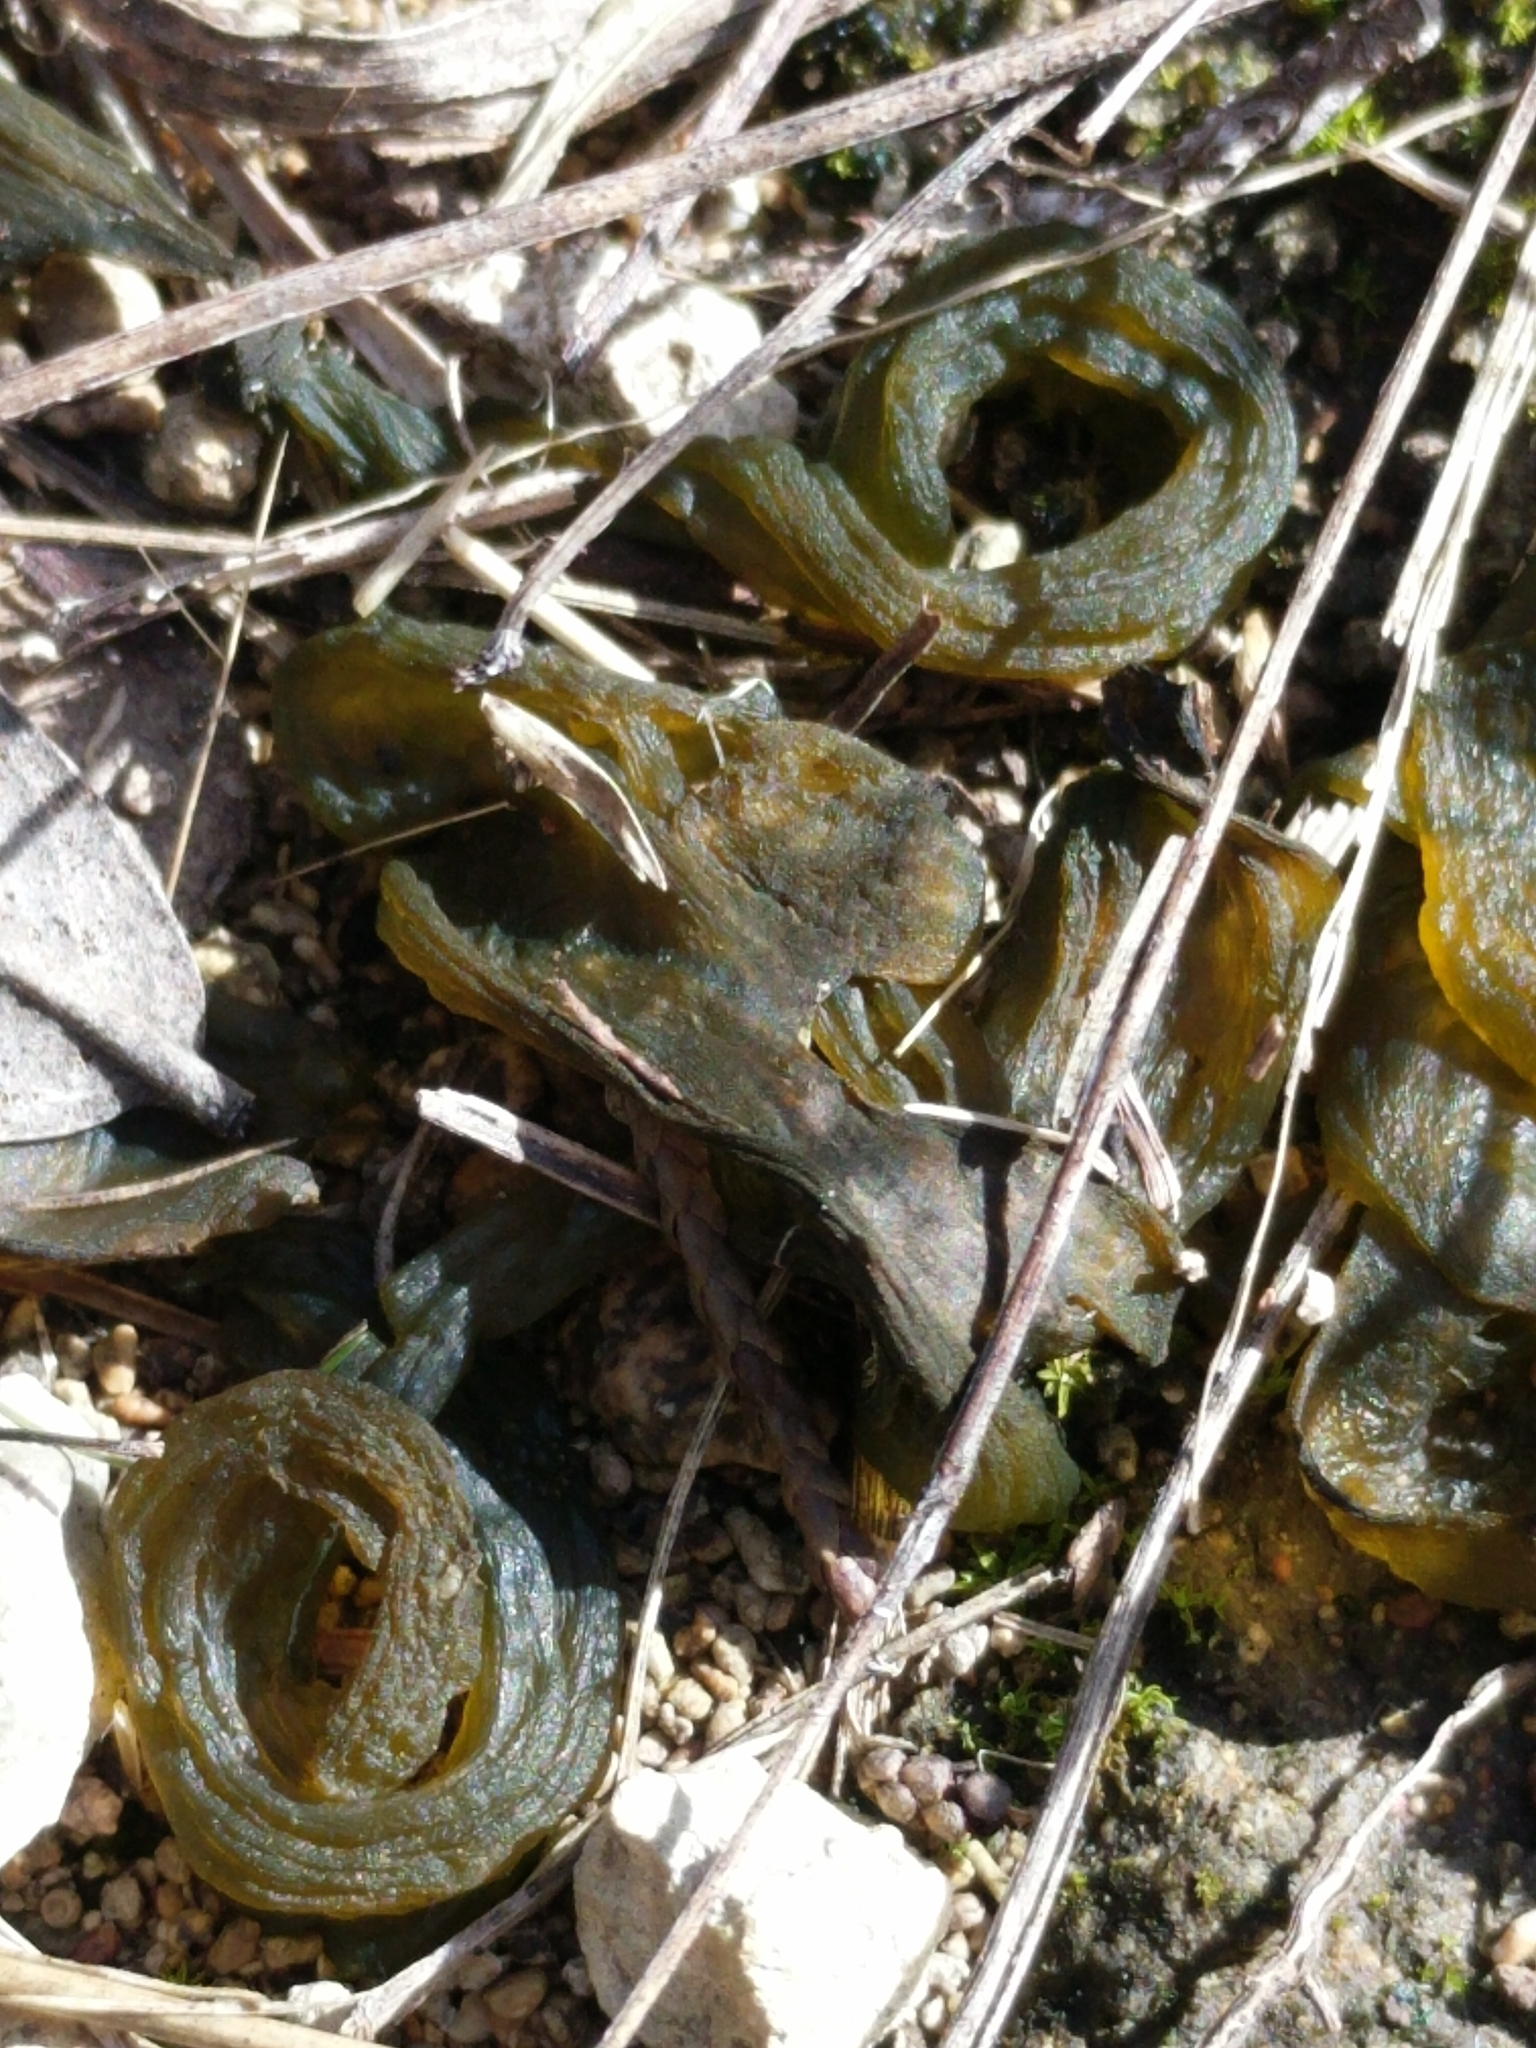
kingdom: Bacteria
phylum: Cyanobacteria
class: Cyanobacteriia
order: Cyanobacteriales
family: Nostocaceae
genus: Nostoc
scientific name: Nostoc commune
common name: Star jelly
